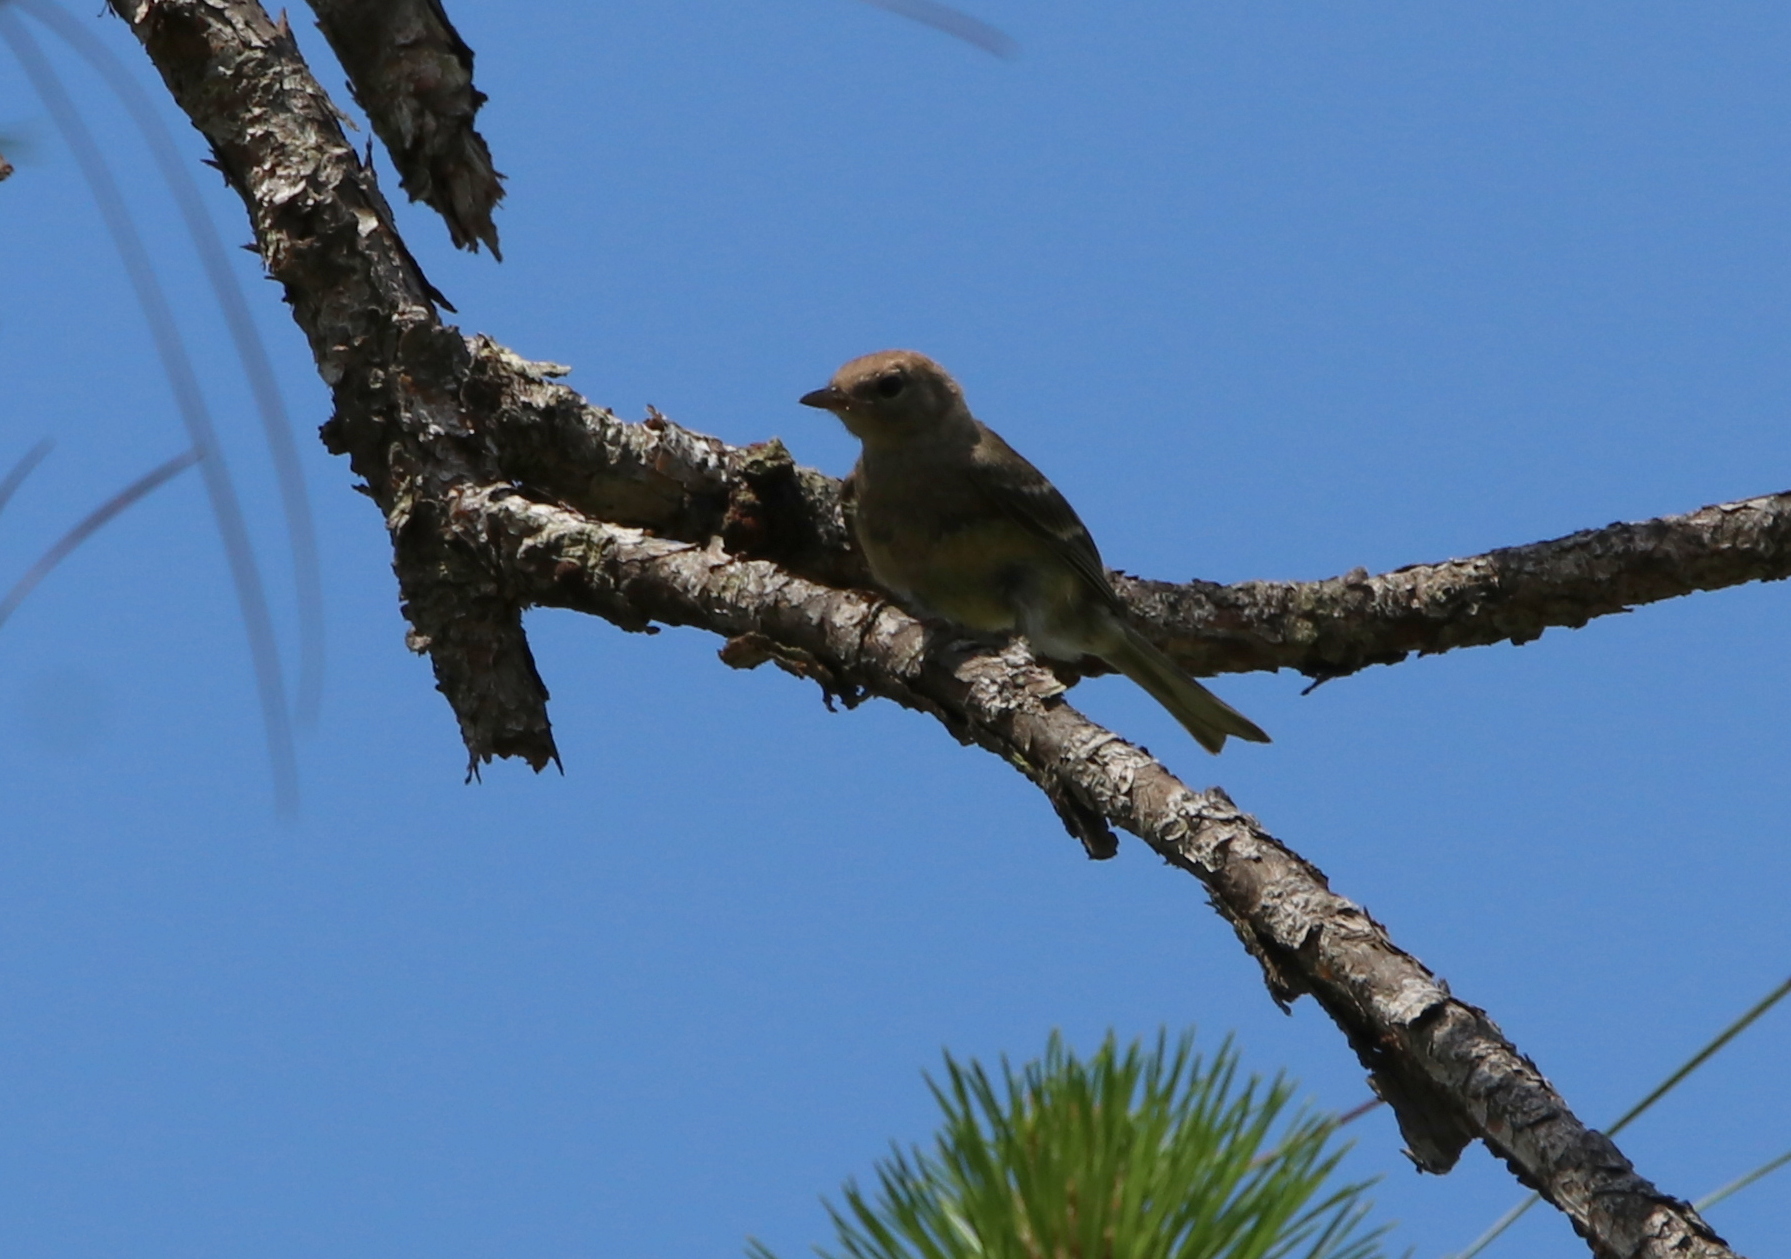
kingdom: Animalia
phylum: Chordata
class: Aves
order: Passeriformes
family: Parulidae
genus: Setophaga
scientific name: Setophaga pinus
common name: Pine warbler
